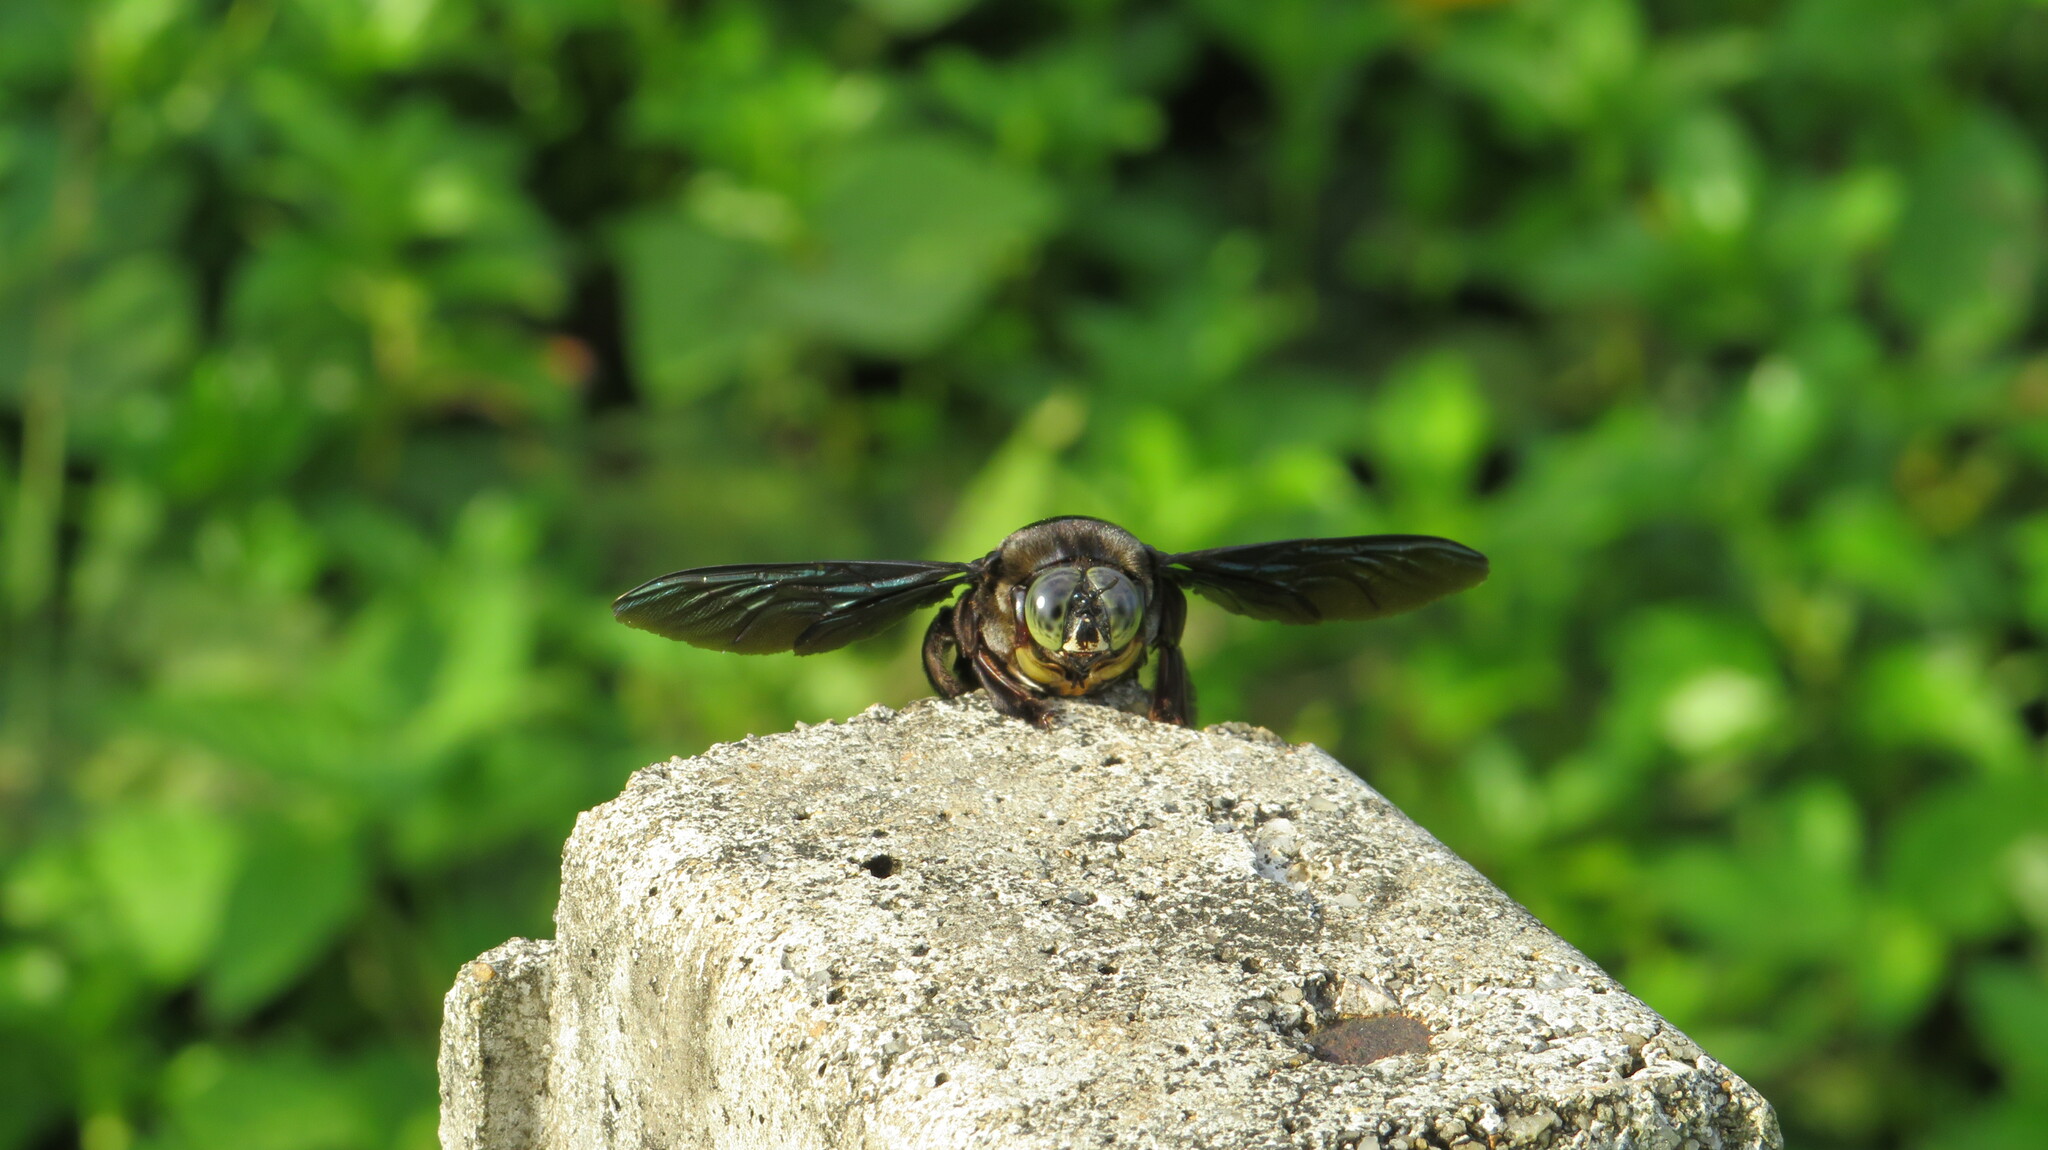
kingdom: Animalia
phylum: Arthropoda
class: Insecta
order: Hymenoptera
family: Apidae
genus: Xylocopa
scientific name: Xylocopa latipes
